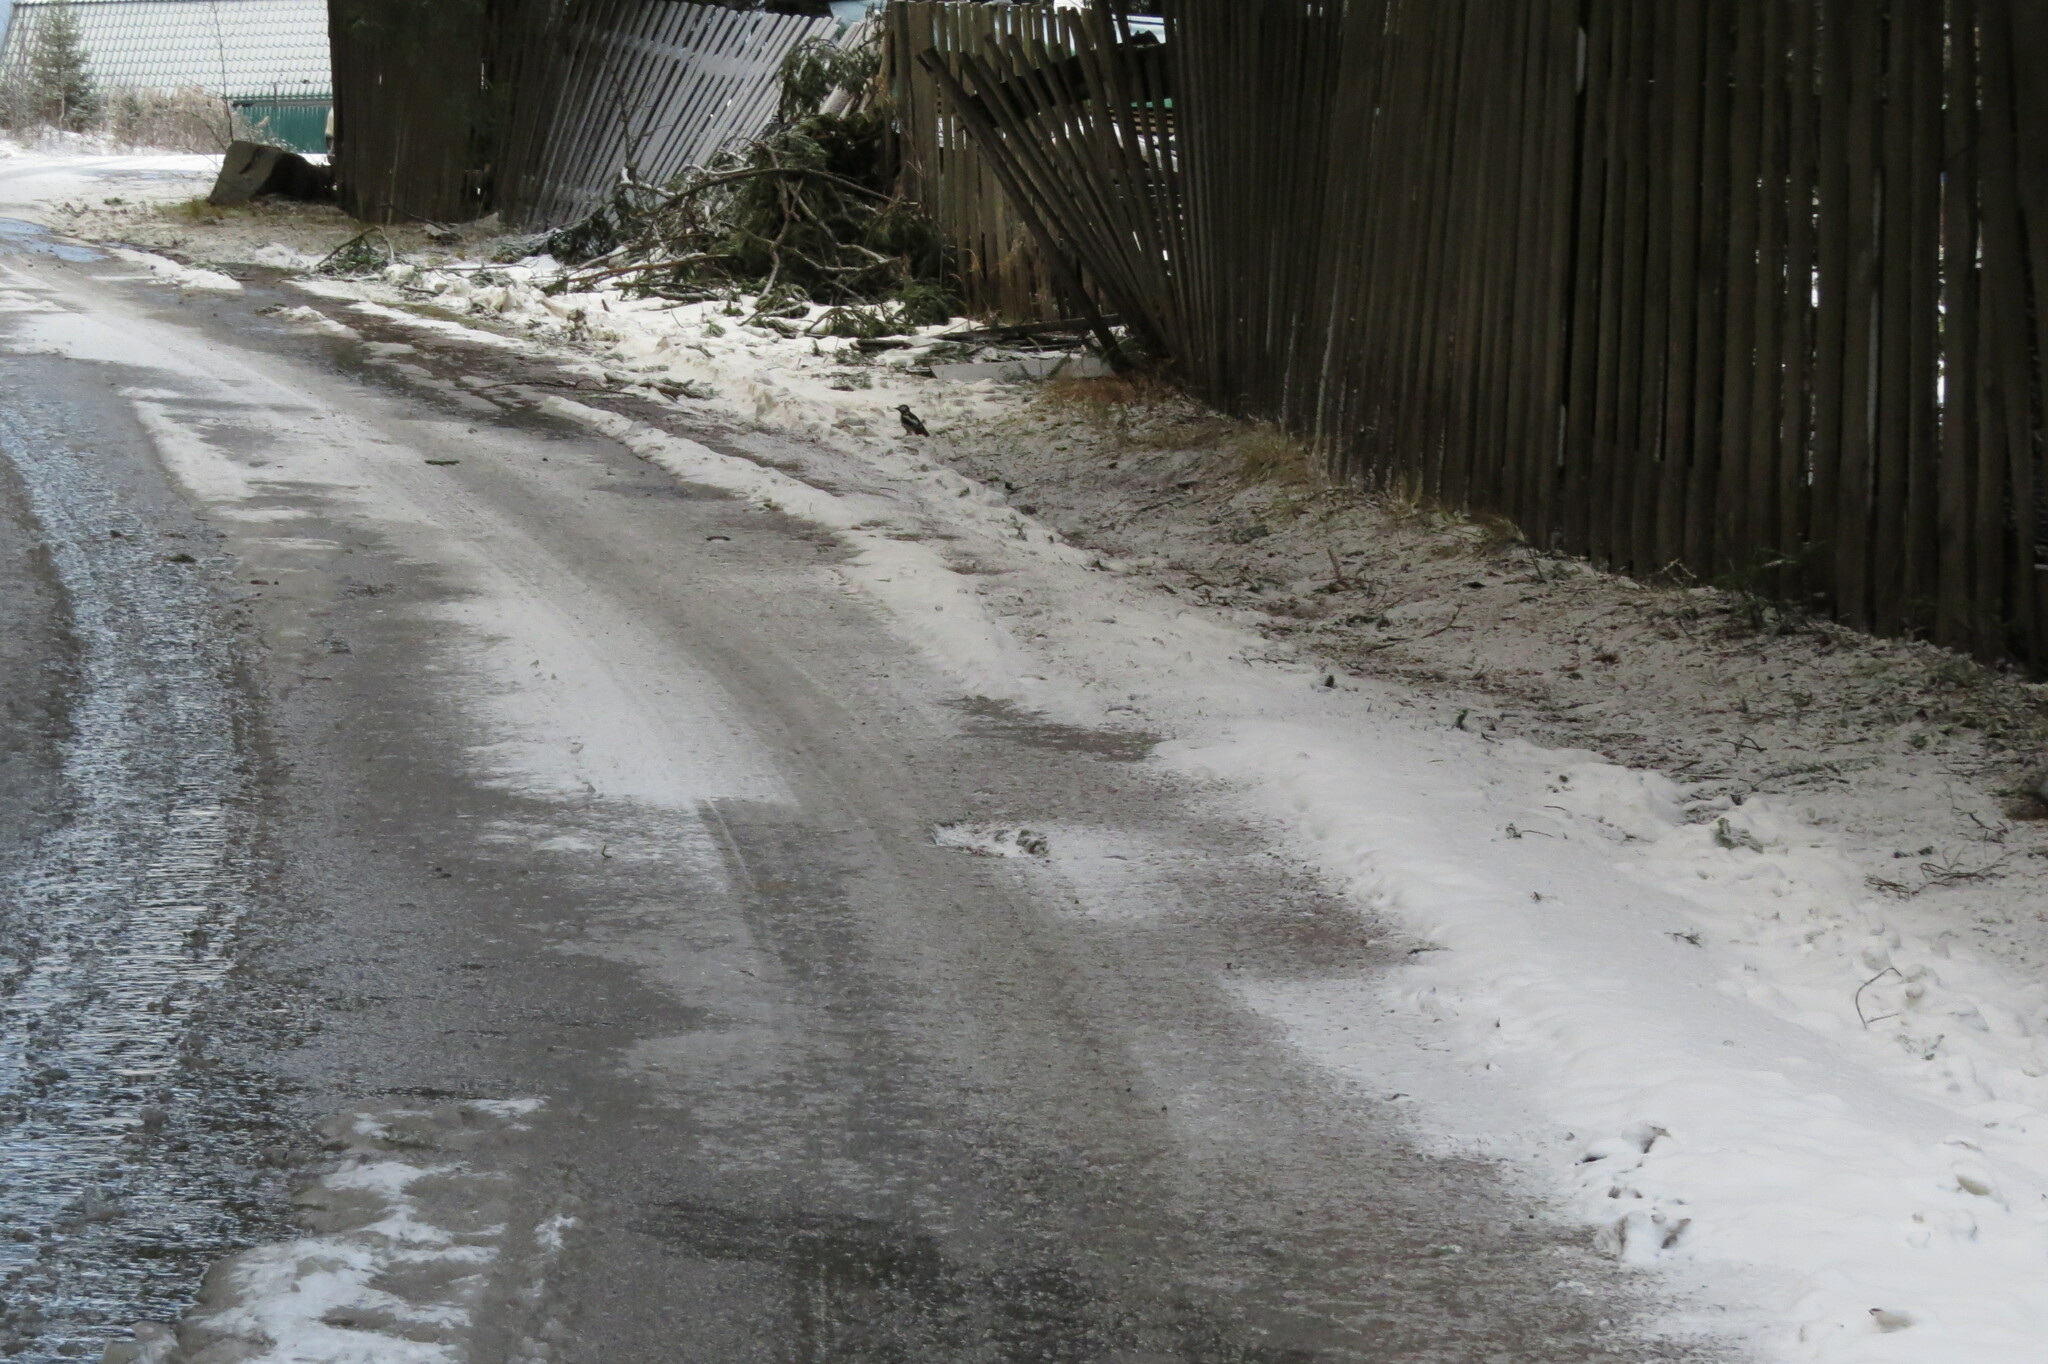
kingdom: Animalia
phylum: Chordata
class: Aves
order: Piciformes
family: Picidae
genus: Dendrocopos
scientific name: Dendrocopos major
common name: Great spotted woodpecker
